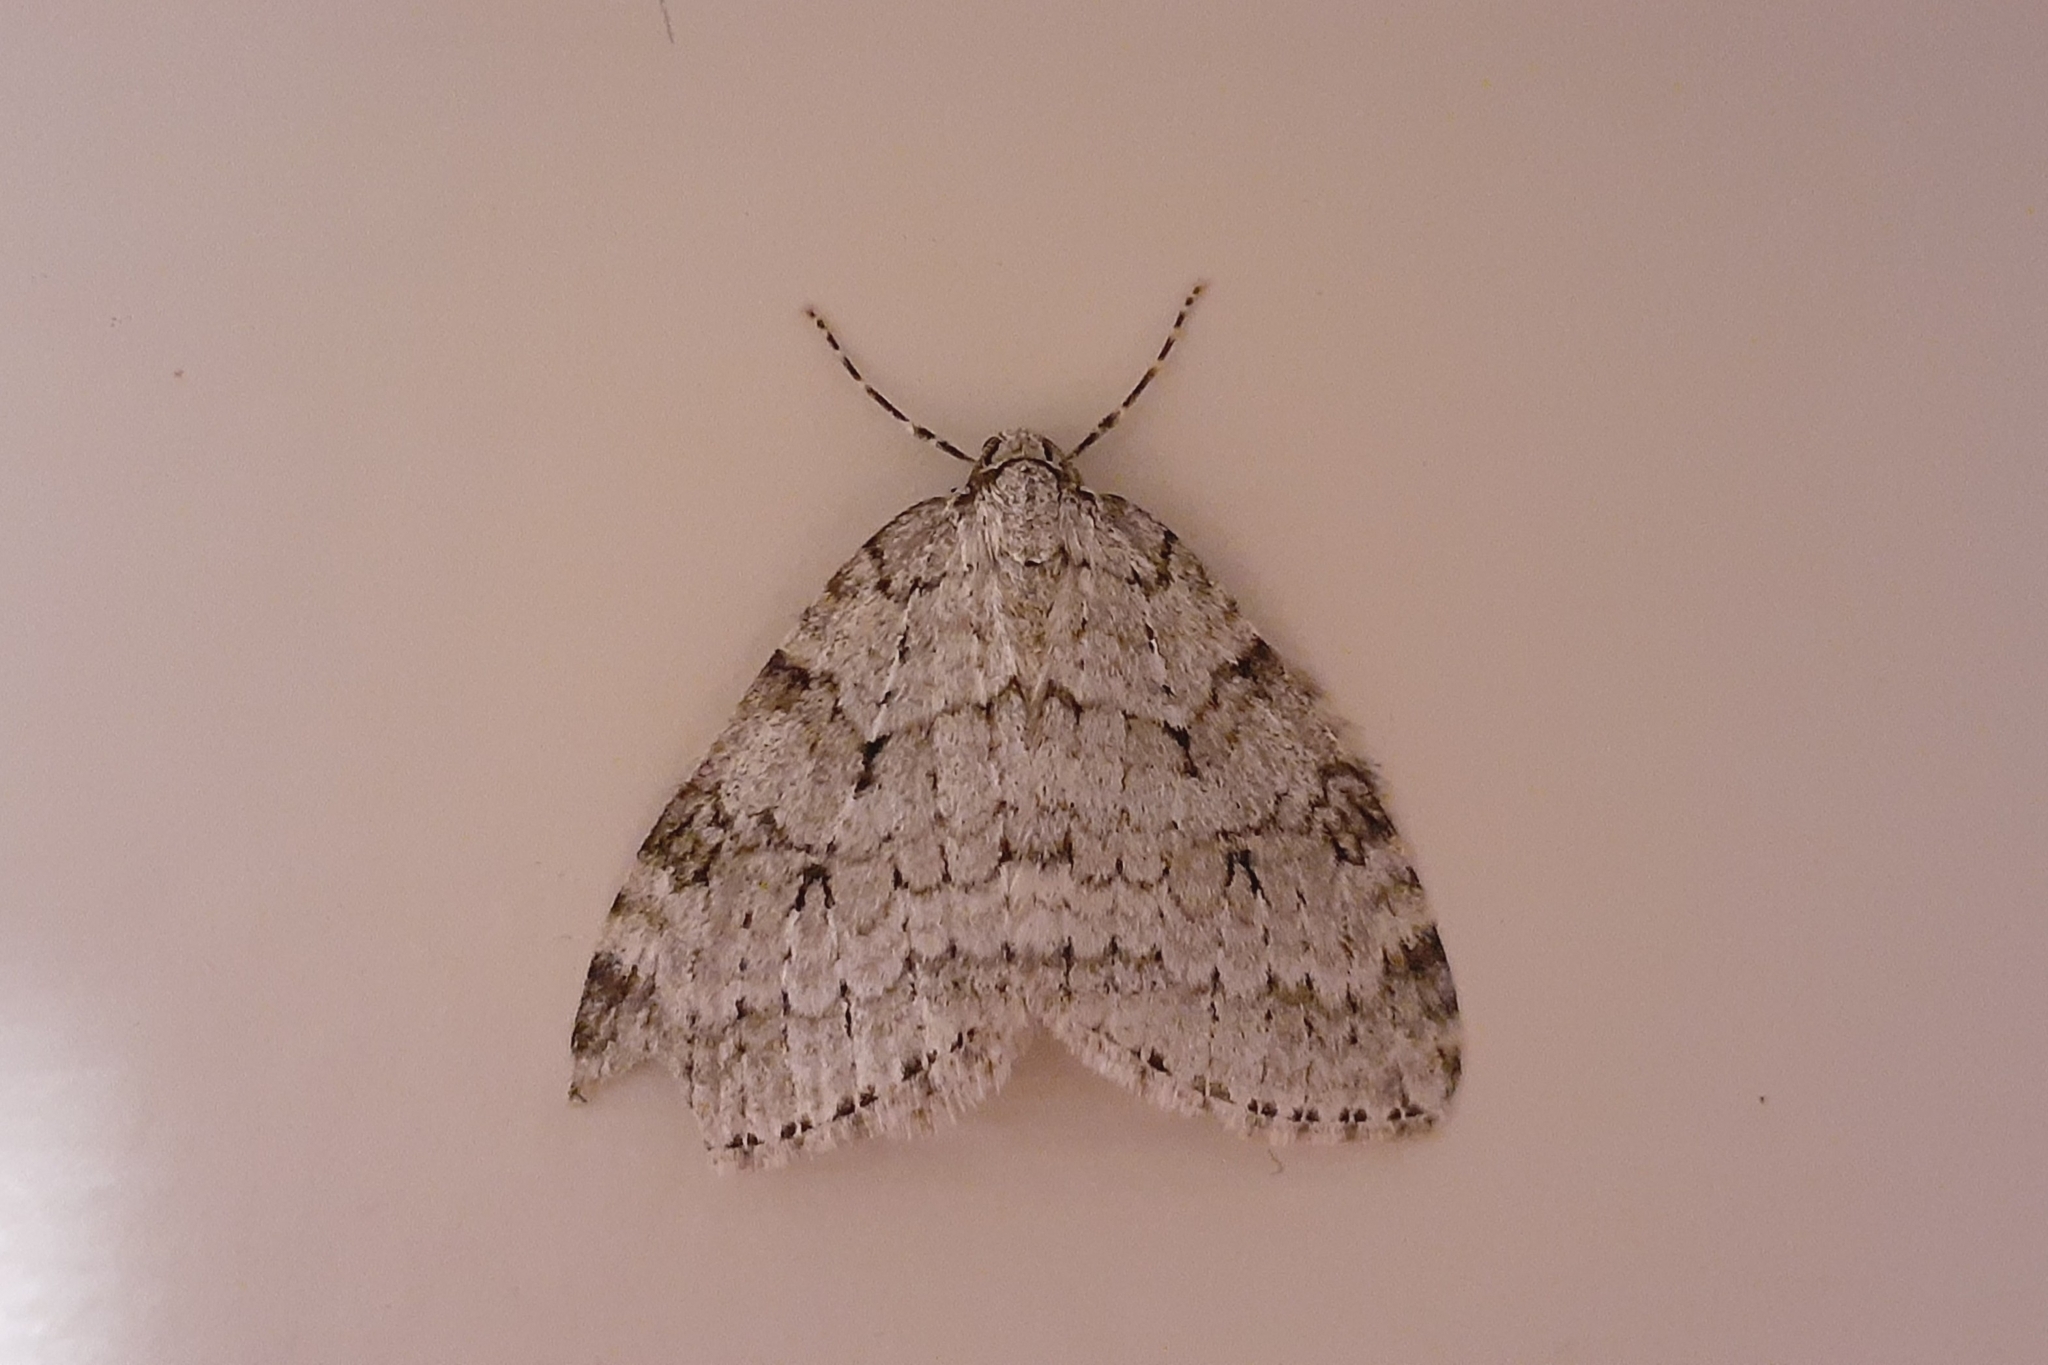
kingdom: Animalia
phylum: Arthropoda
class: Insecta
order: Lepidoptera
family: Geometridae
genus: Epirrita
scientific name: Epirrita autumnata
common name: Autumnal moth
